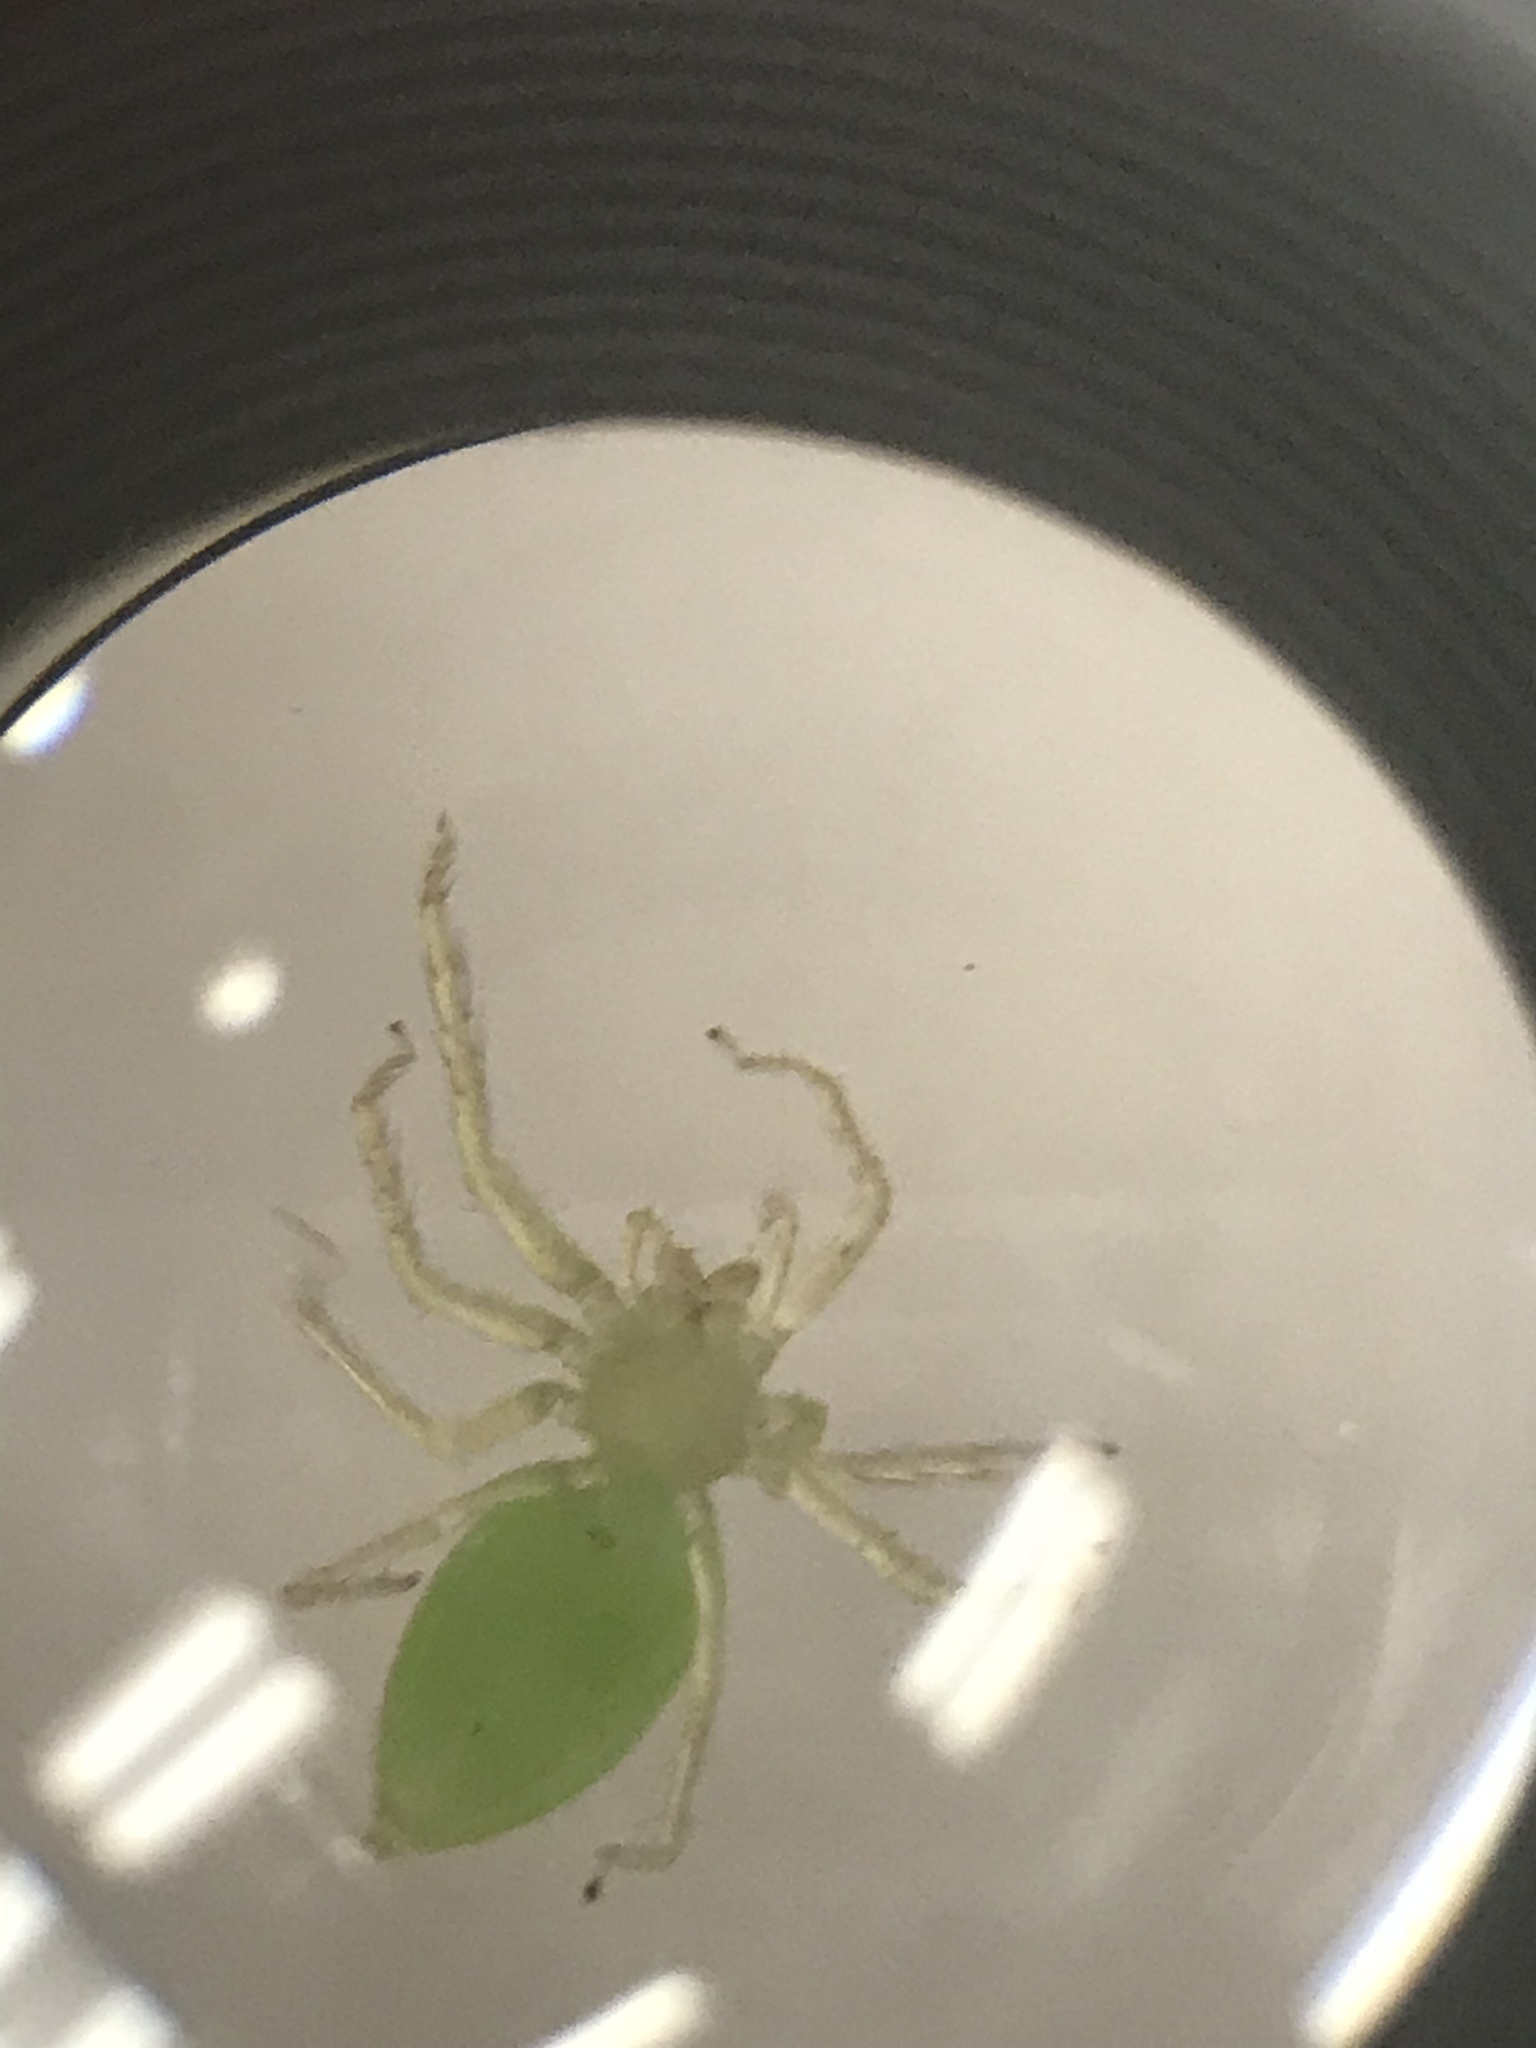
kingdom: Animalia
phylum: Arthropoda
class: Arachnida
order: Araneae
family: Salticidae
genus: Lyssomanes
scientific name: Lyssomanes viridis
